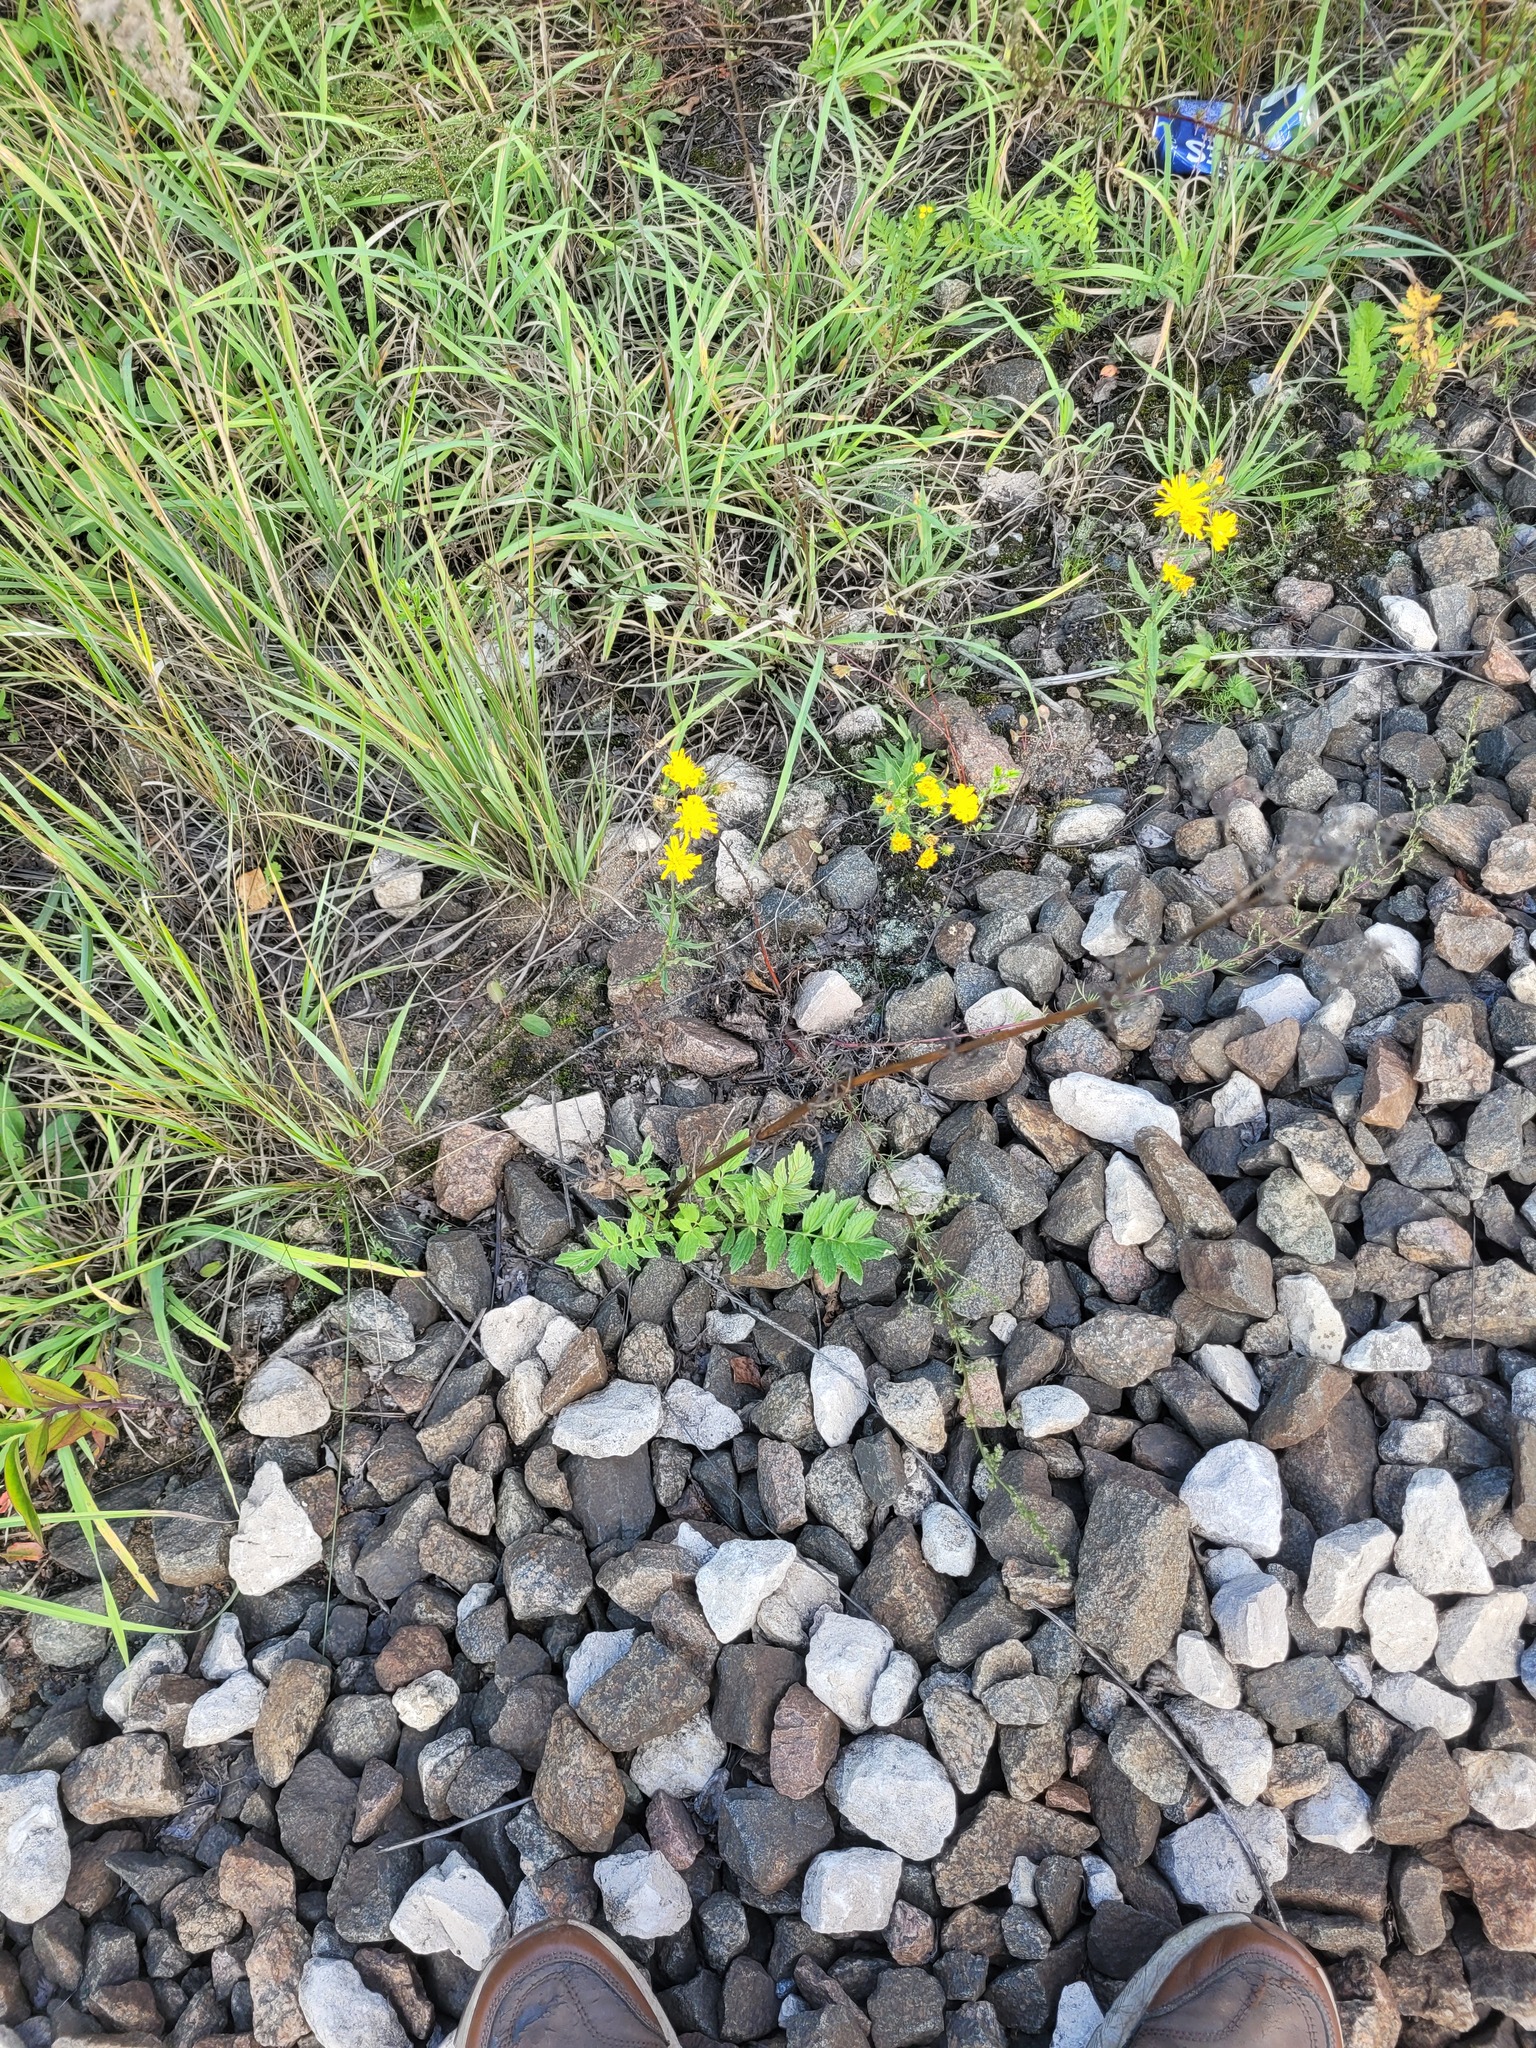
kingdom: Plantae
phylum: Tracheophyta
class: Magnoliopsida
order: Dipsacales
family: Caprifoliaceae
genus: Valeriana
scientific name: Valeriana officinalis
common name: Common valerian
